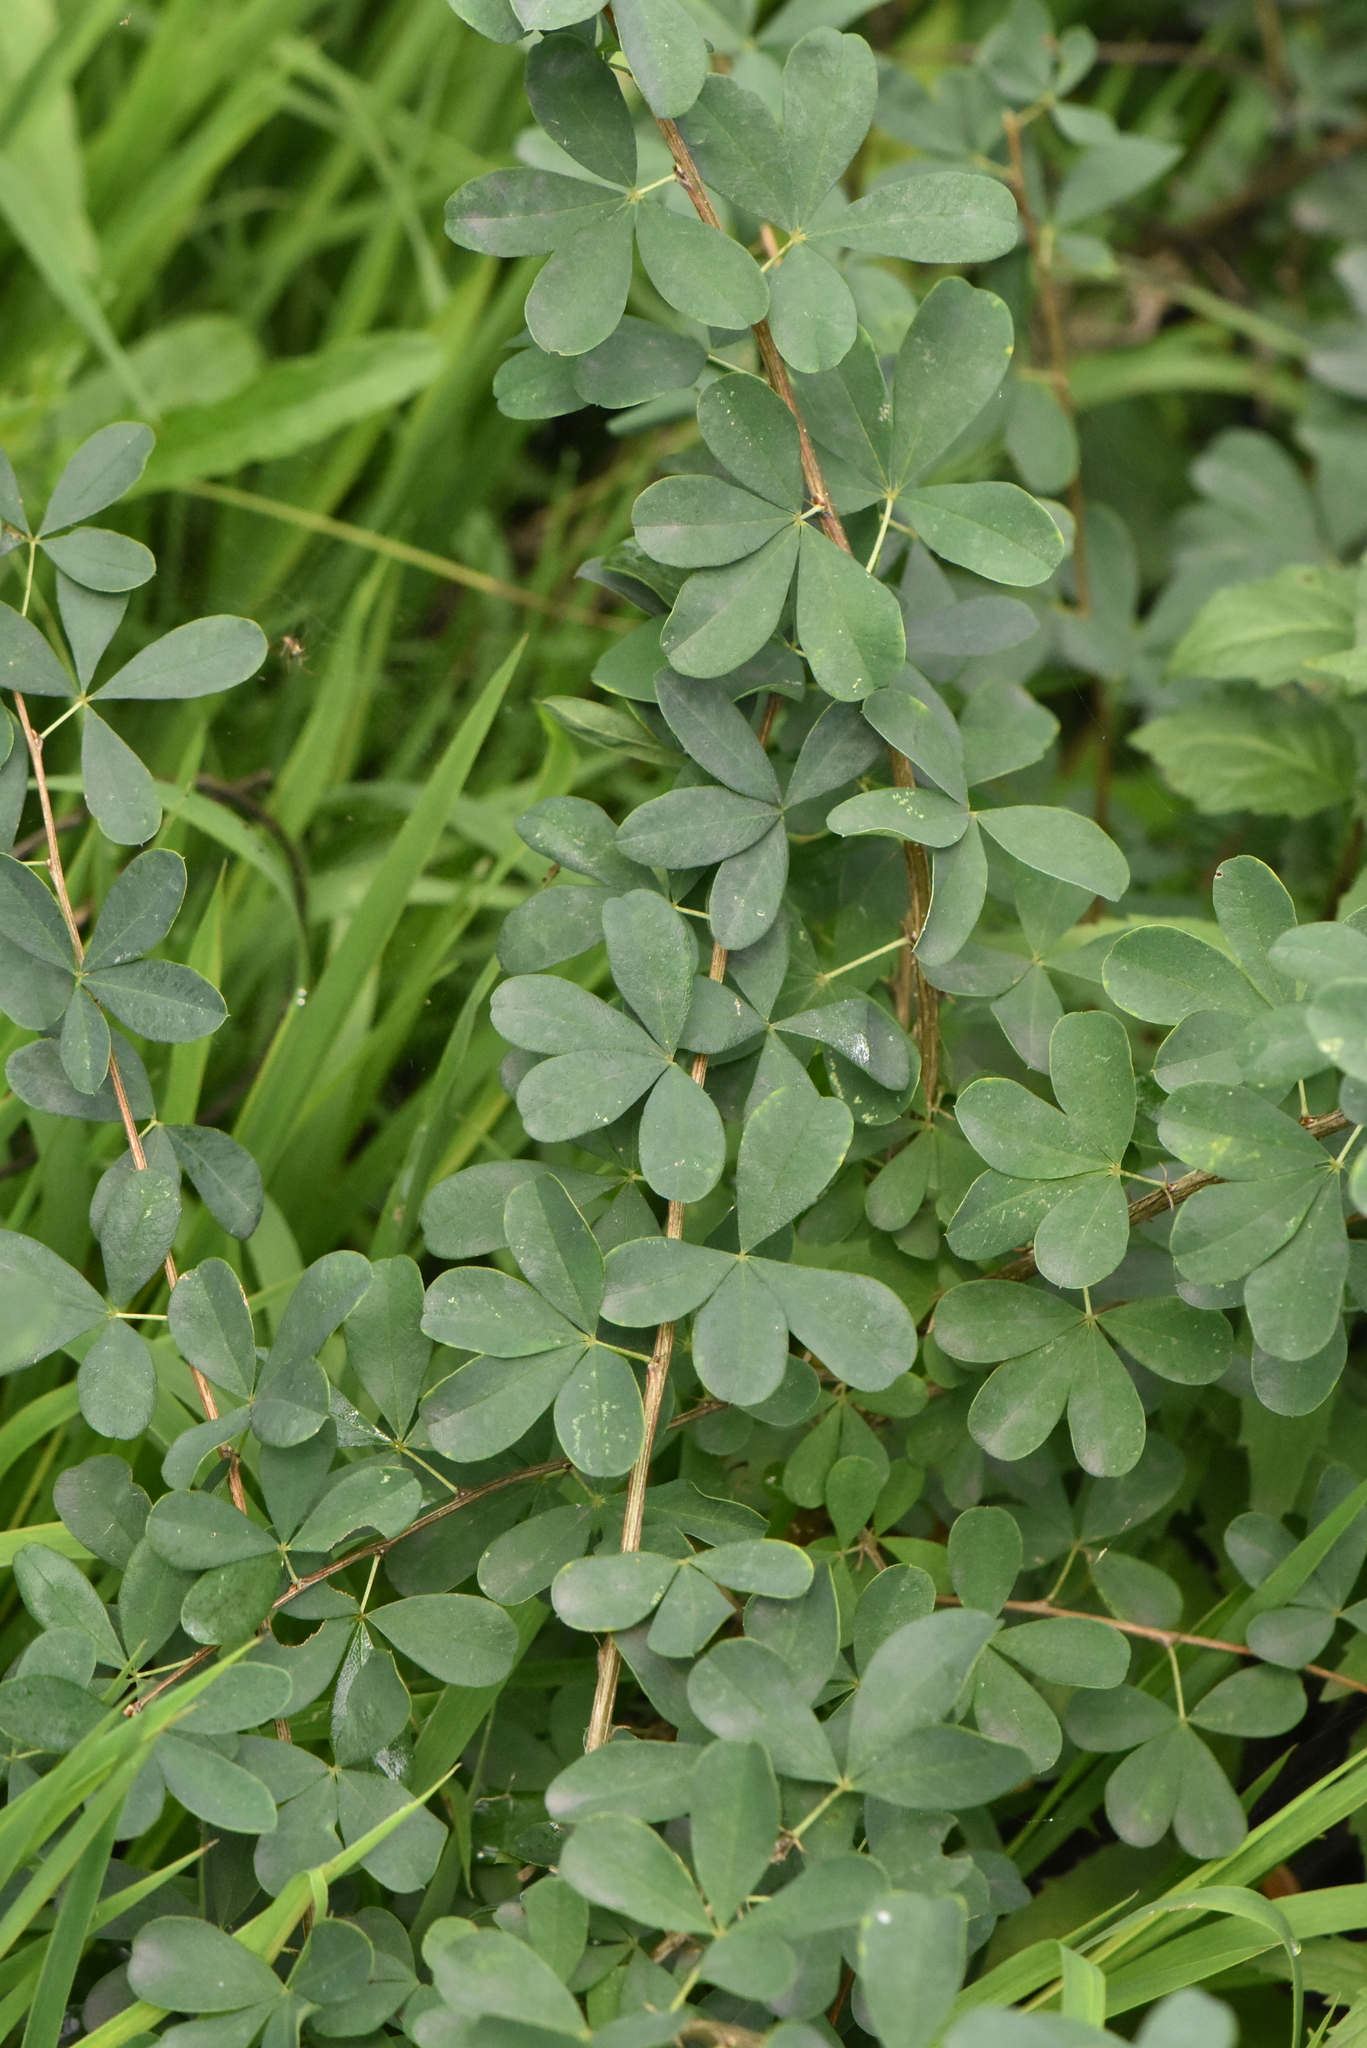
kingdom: Plantae
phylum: Tracheophyta
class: Magnoliopsida
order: Fabales
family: Fabaceae
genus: Caragana
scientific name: Caragana frutex
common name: Russian peashrub
